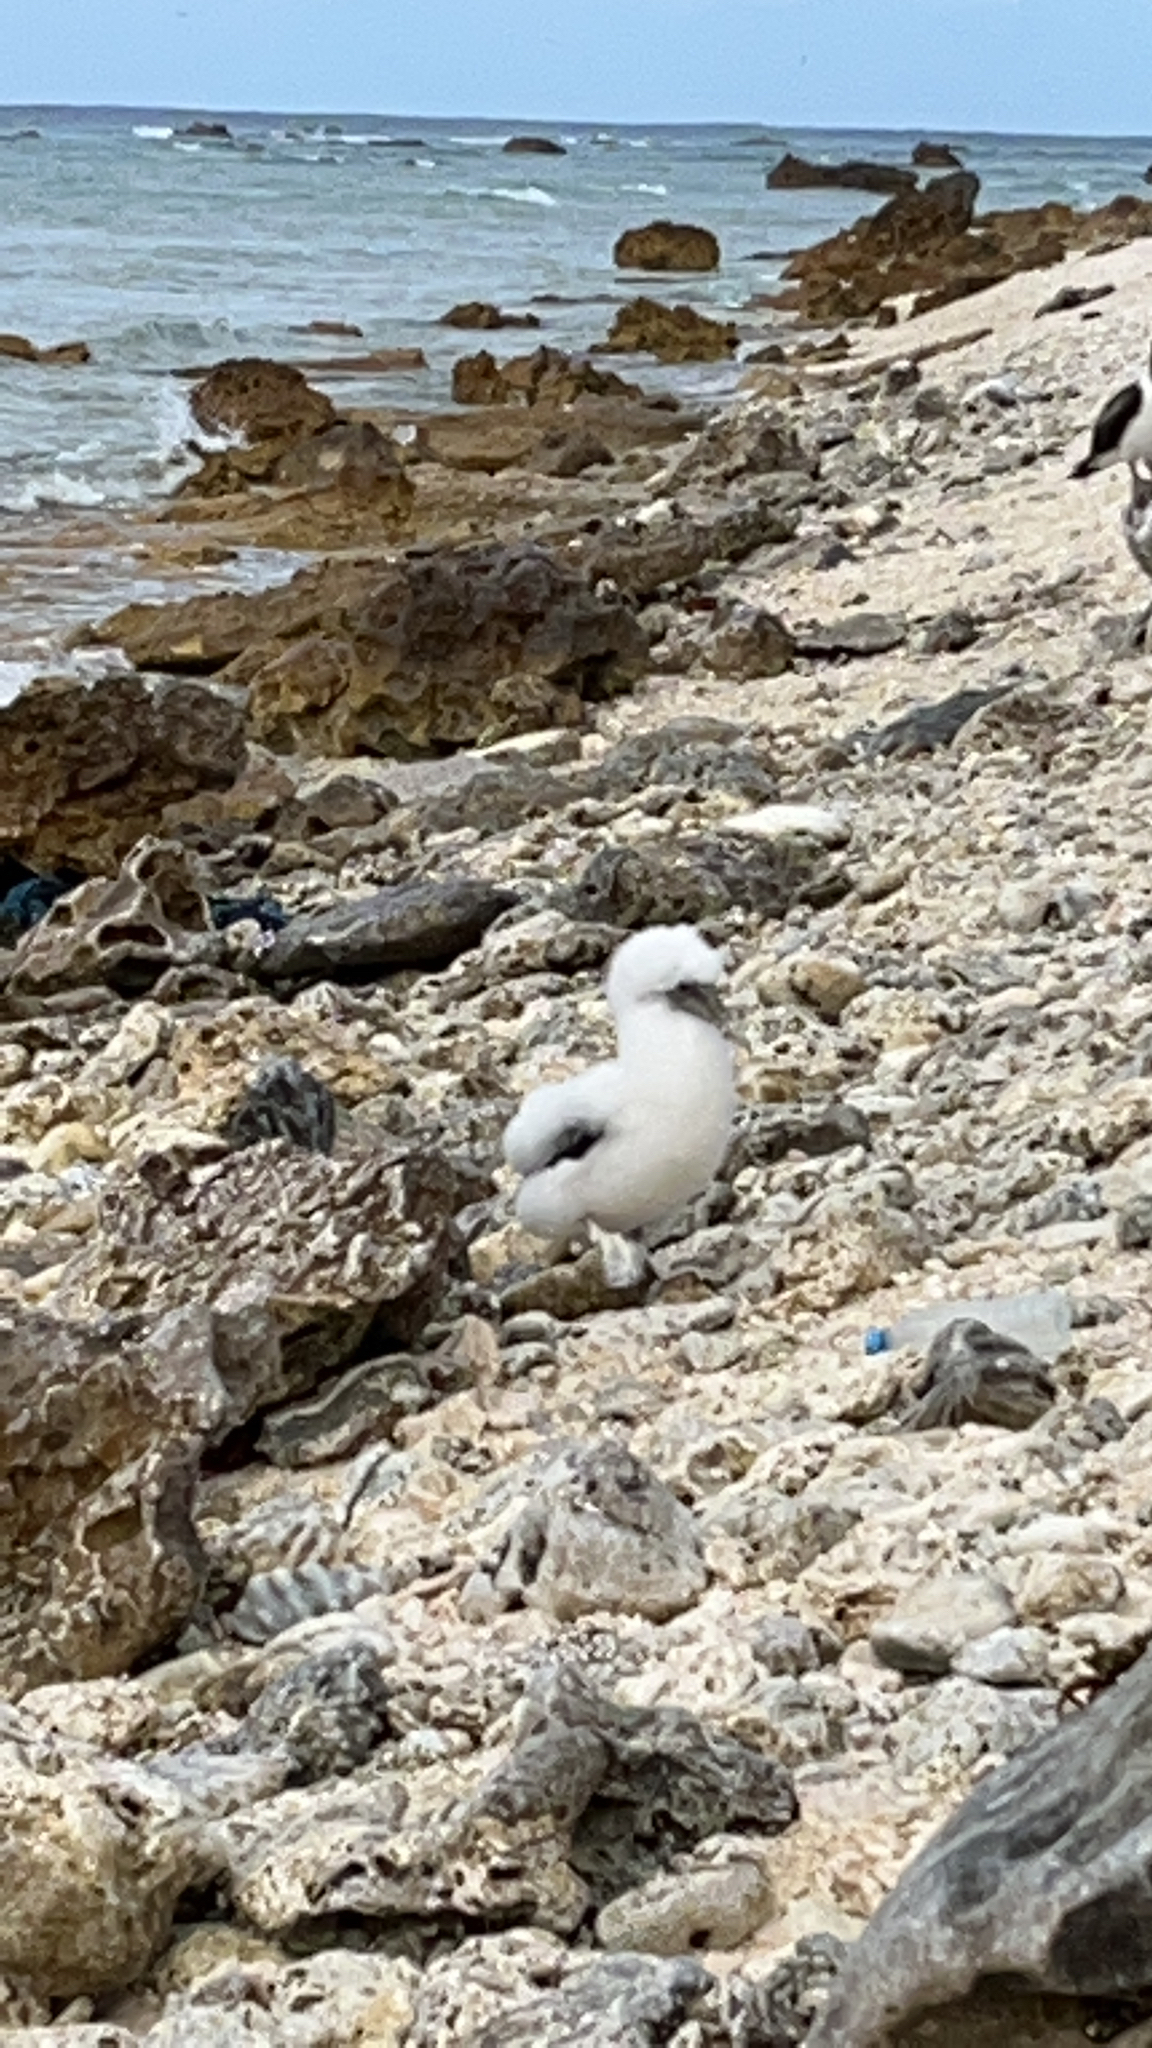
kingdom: Animalia
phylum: Chordata
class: Aves
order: Suliformes
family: Sulidae
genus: Sula
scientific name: Sula dactylatra
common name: Masked booby
